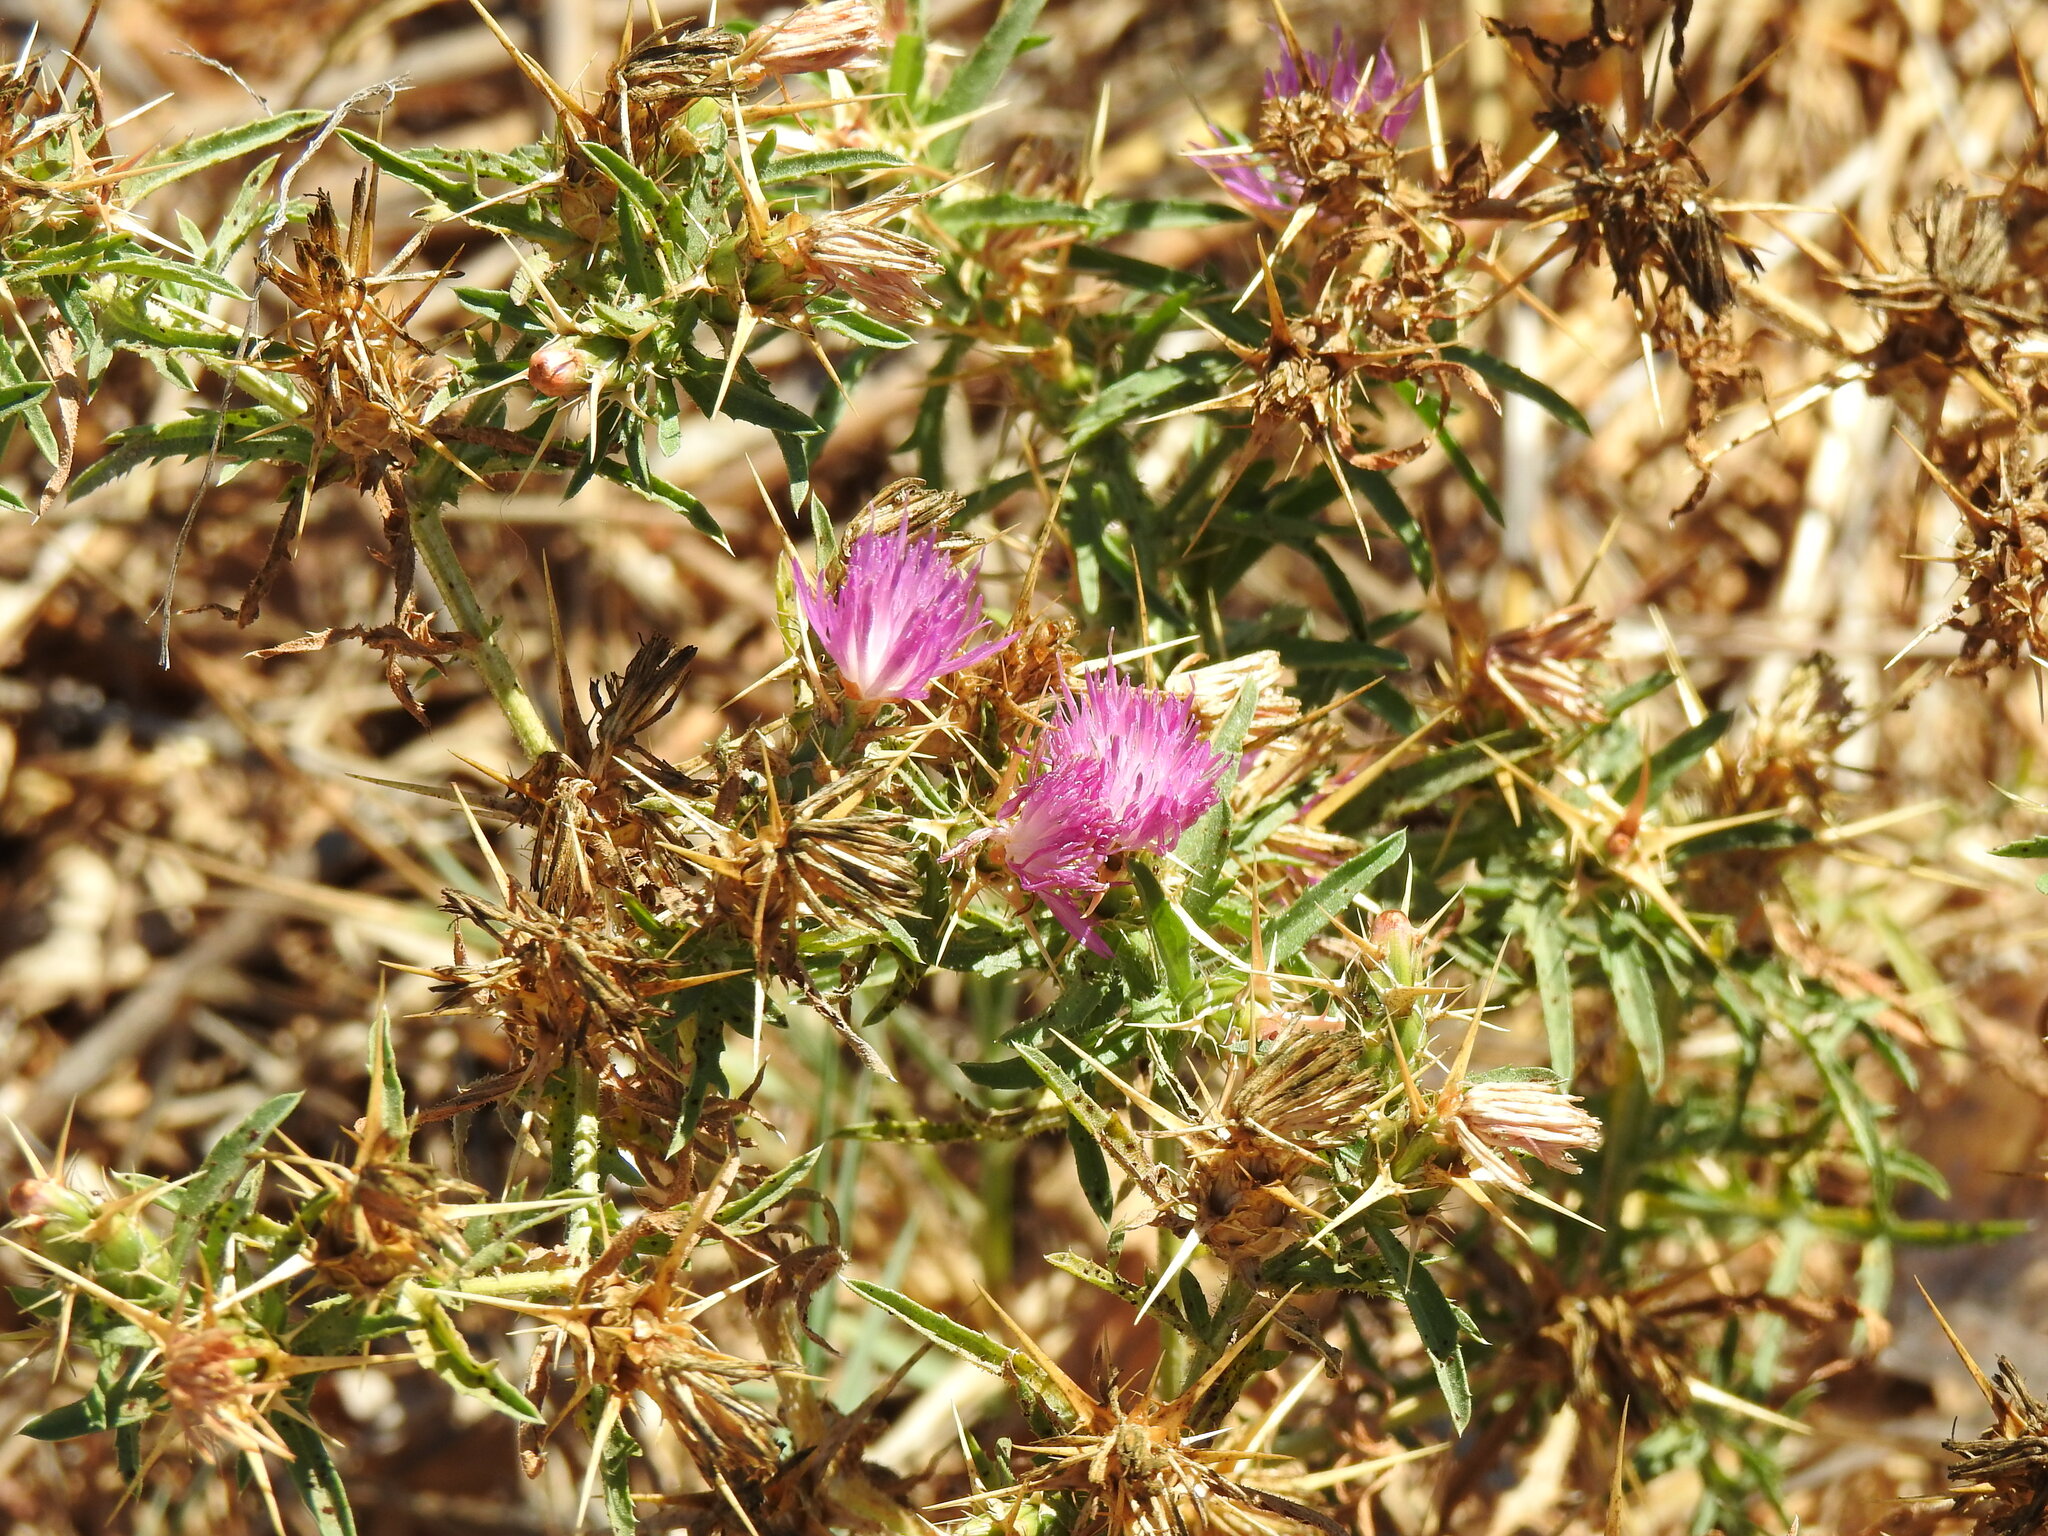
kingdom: Plantae
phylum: Tracheophyta
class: Magnoliopsida
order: Asterales
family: Asteraceae
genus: Centaurea
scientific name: Centaurea calcitrapa
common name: Red star-thistle
